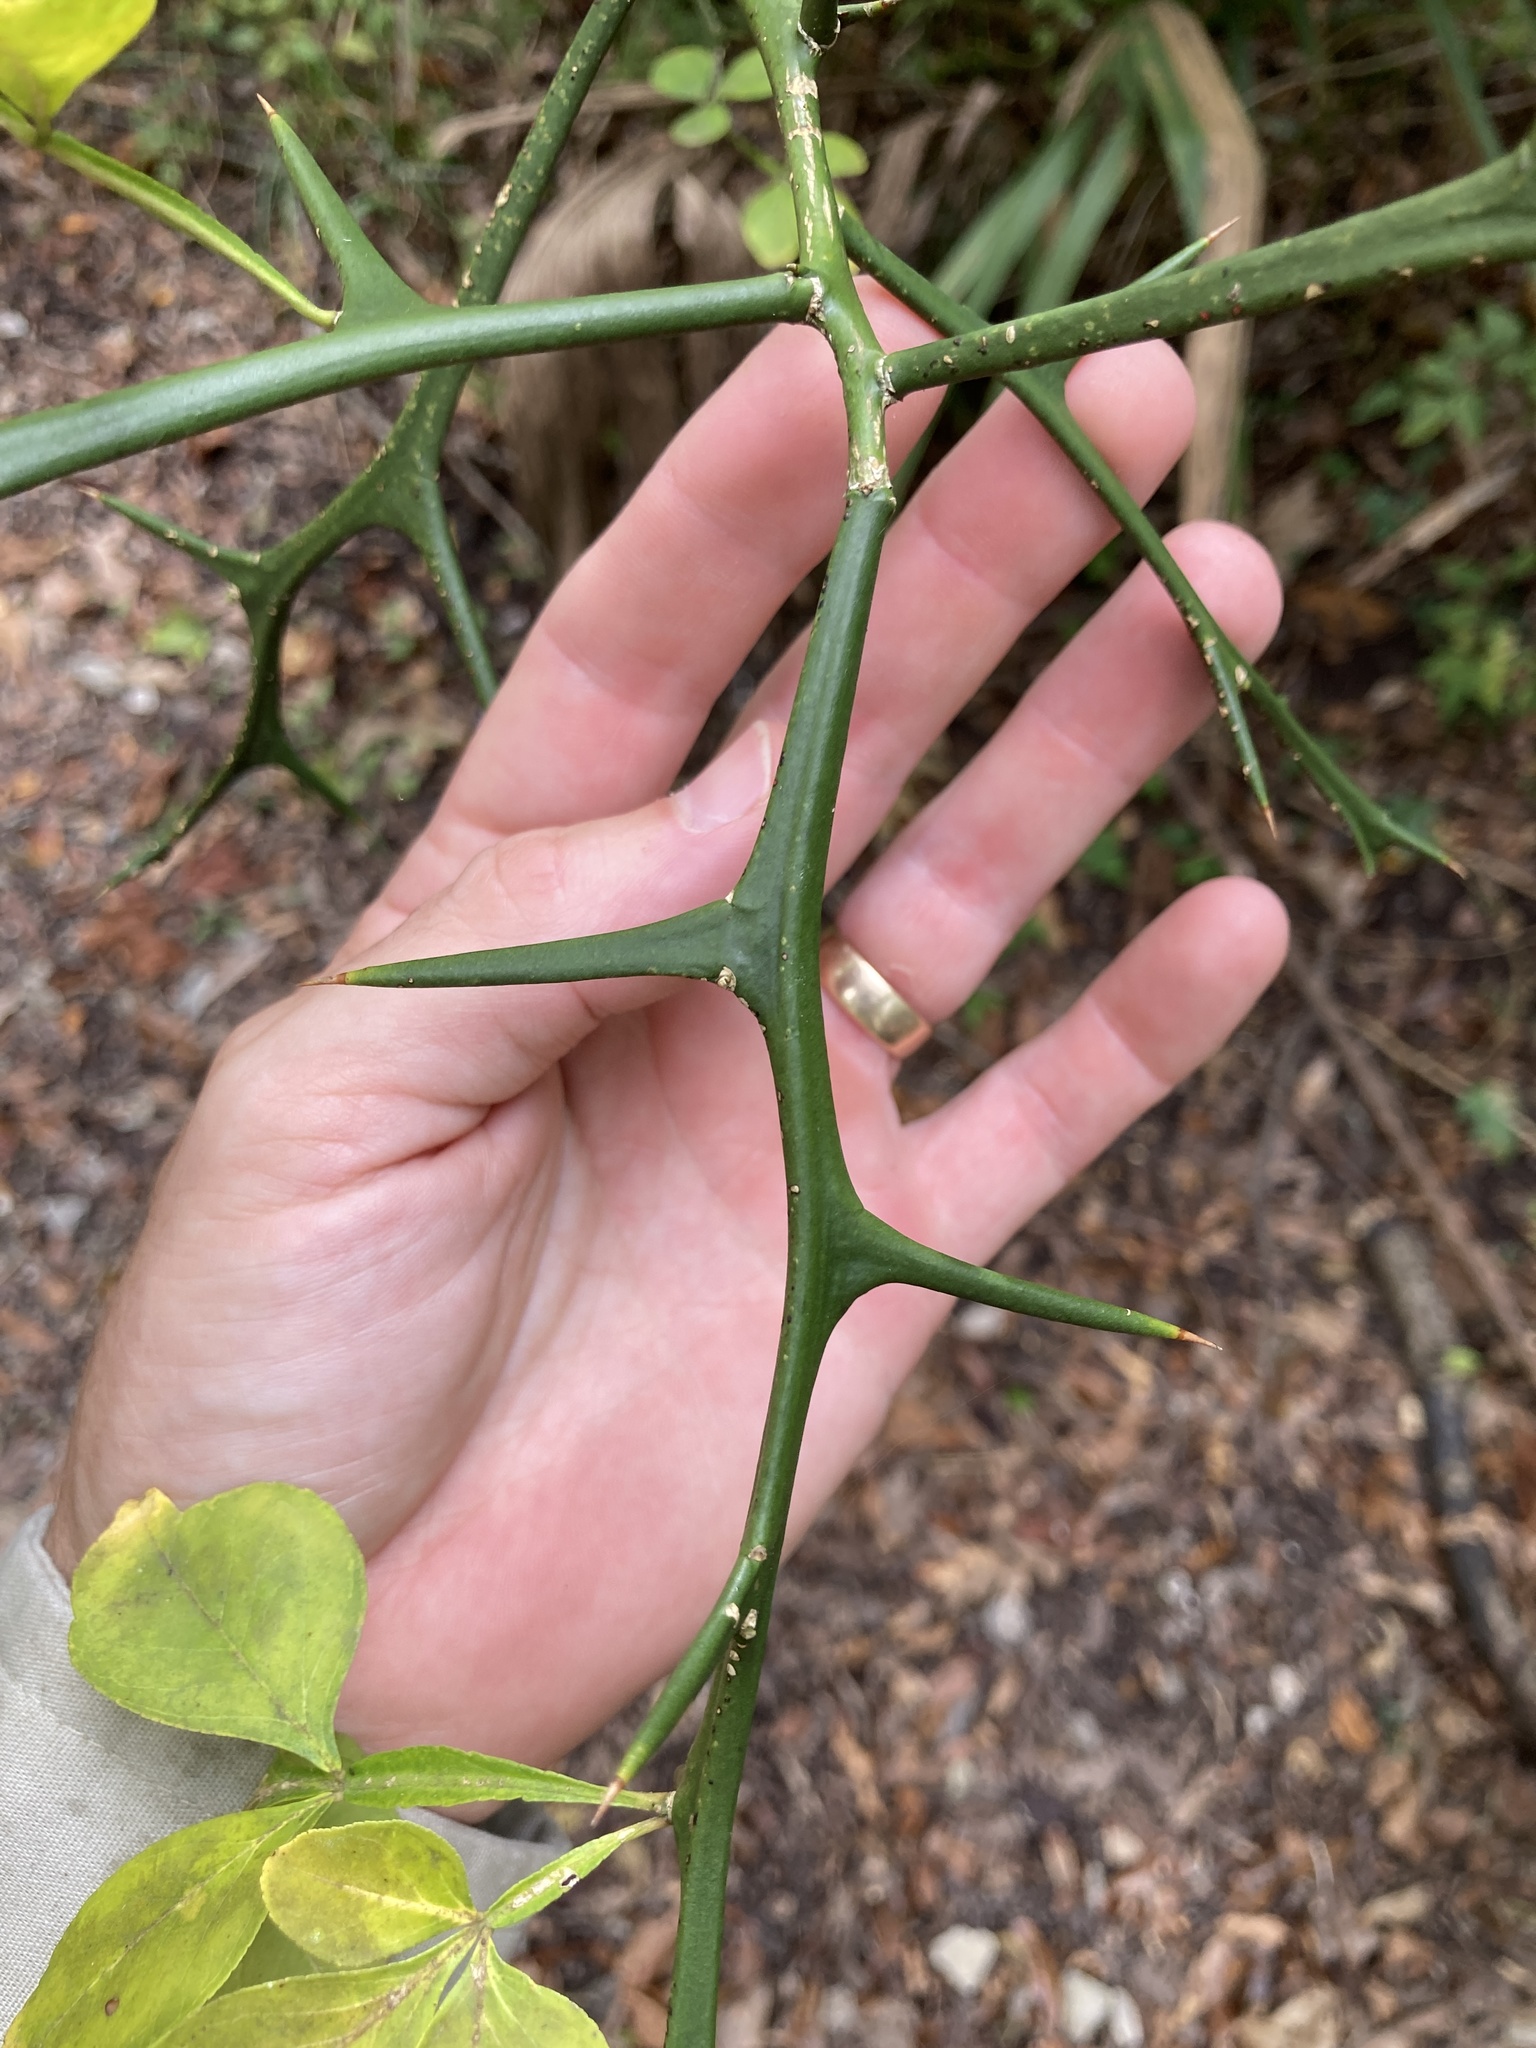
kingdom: Plantae
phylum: Tracheophyta
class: Magnoliopsida
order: Sapindales
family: Rutaceae
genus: Citrus
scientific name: Citrus trifoliata
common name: Japanese bitter-orange
